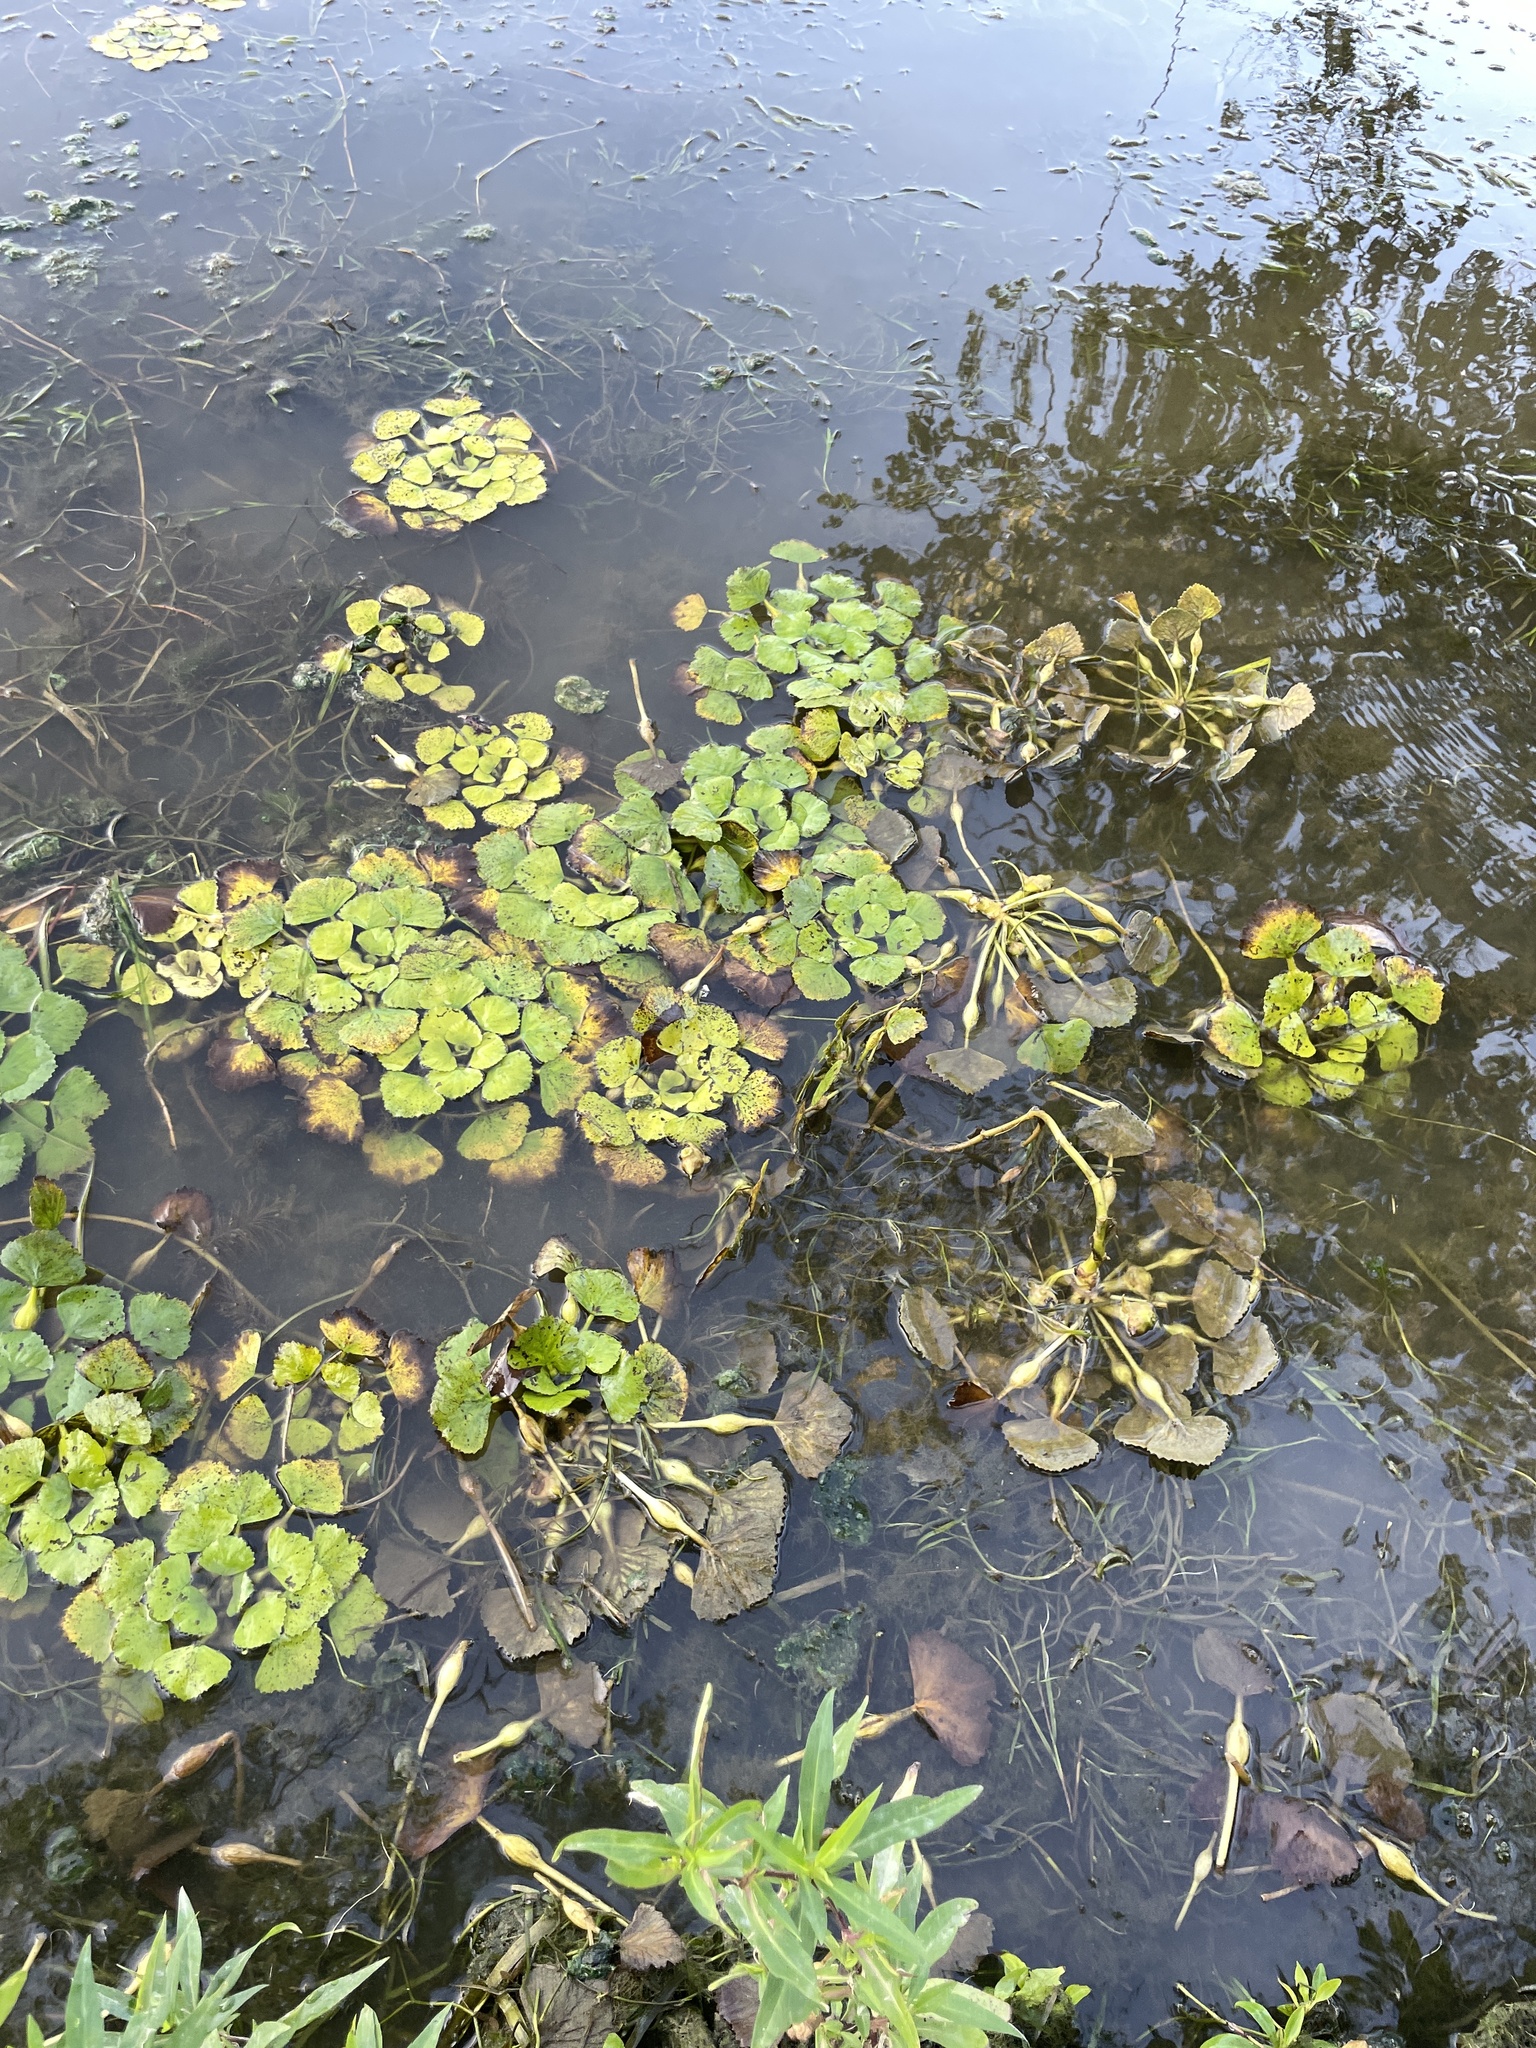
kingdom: Plantae
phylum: Tracheophyta
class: Magnoliopsida
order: Myrtales
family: Lythraceae
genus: Trapa
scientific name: Trapa natans
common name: Water chestnut
